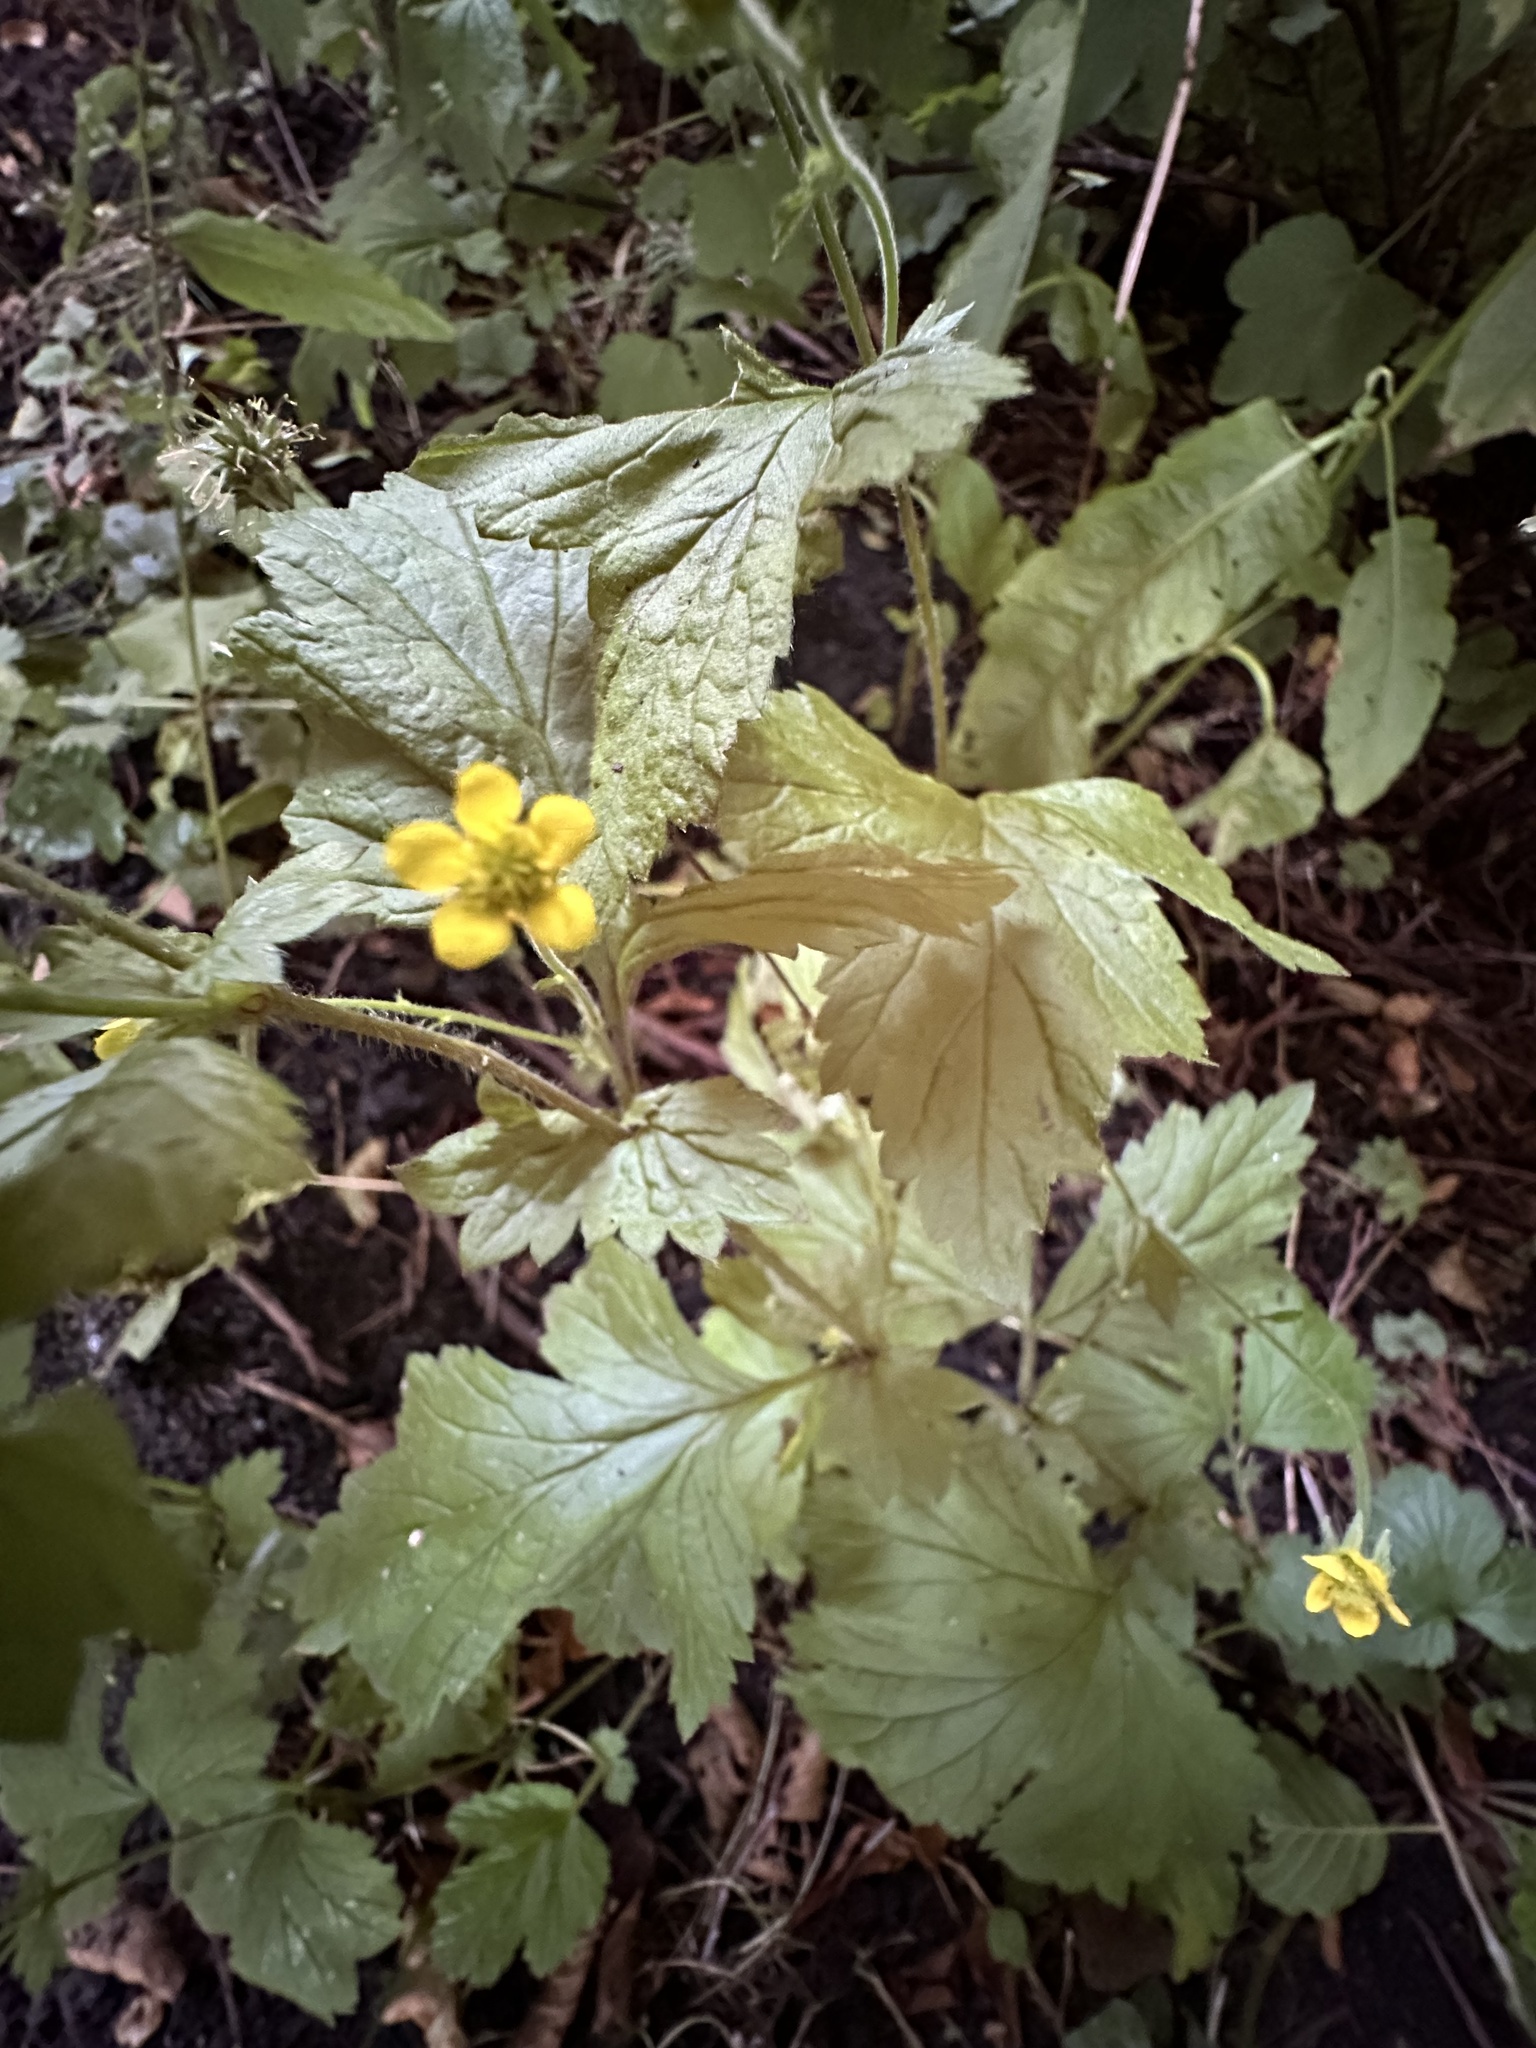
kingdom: Plantae
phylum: Tracheophyta
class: Magnoliopsida
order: Rosales
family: Rosaceae
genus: Geum
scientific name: Geum urbanum
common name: Wood avens
